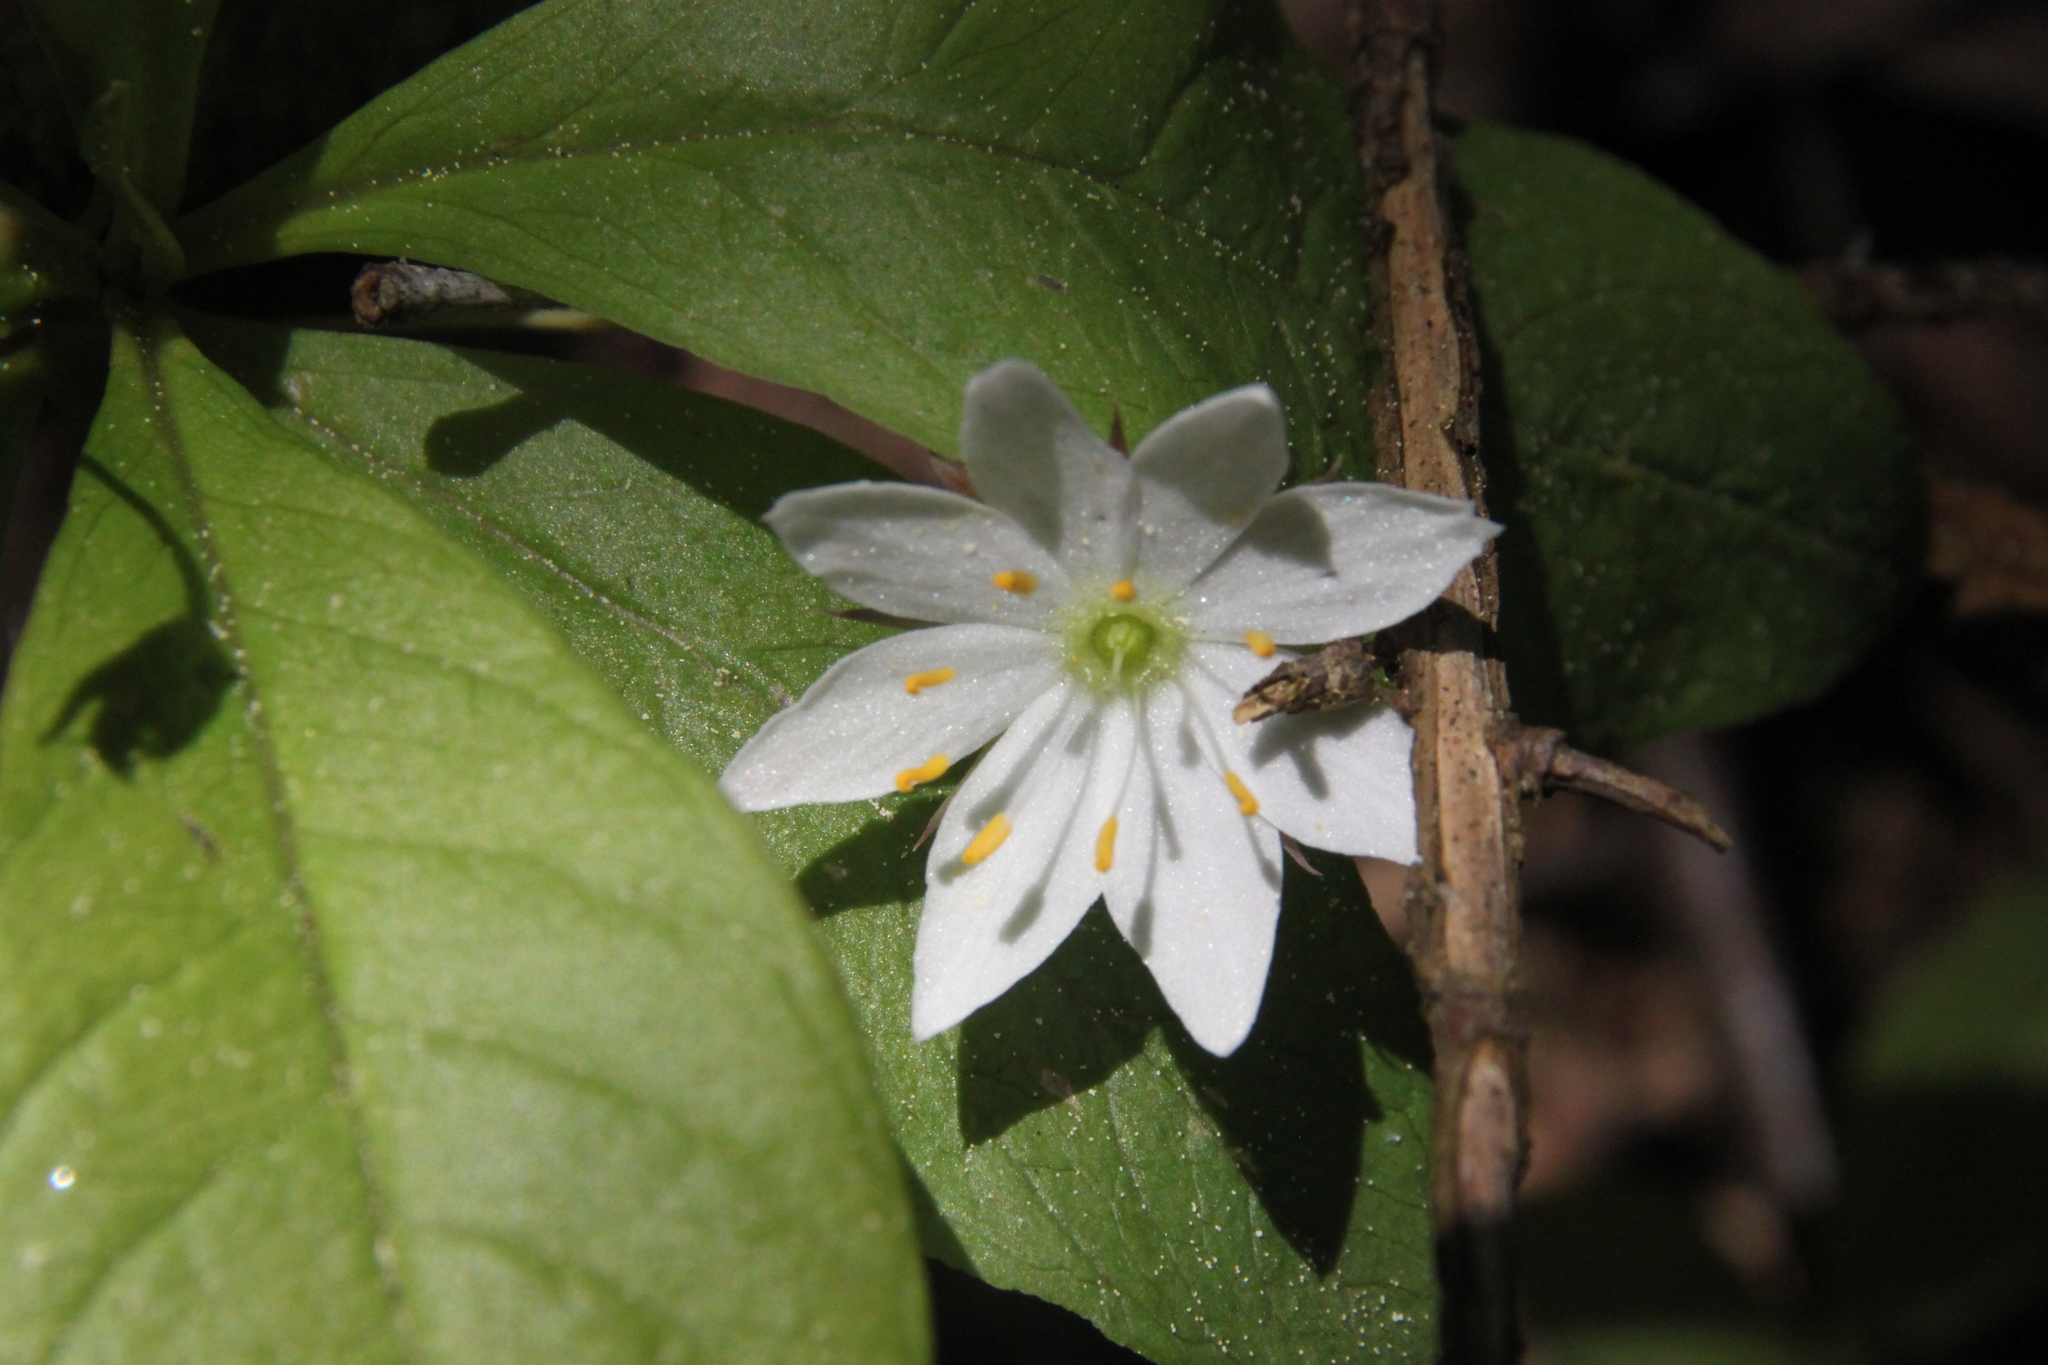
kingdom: Plantae
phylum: Tracheophyta
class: Magnoliopsida
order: Ericales
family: Primulaceae
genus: Lysimachia
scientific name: Lysimachia europaea
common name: Arctic starflower
